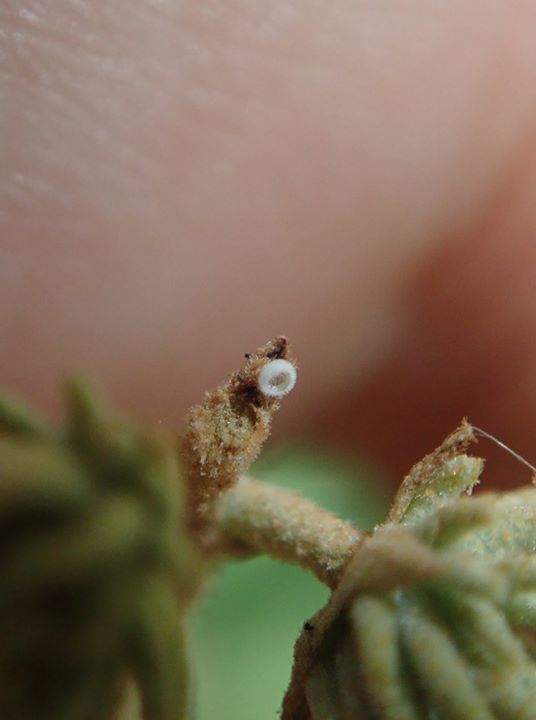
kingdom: Animalia
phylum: Arthropoda
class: Insecta
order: Lepidoptera
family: Lycaenidae
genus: Megisba
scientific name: Megisba malaya
